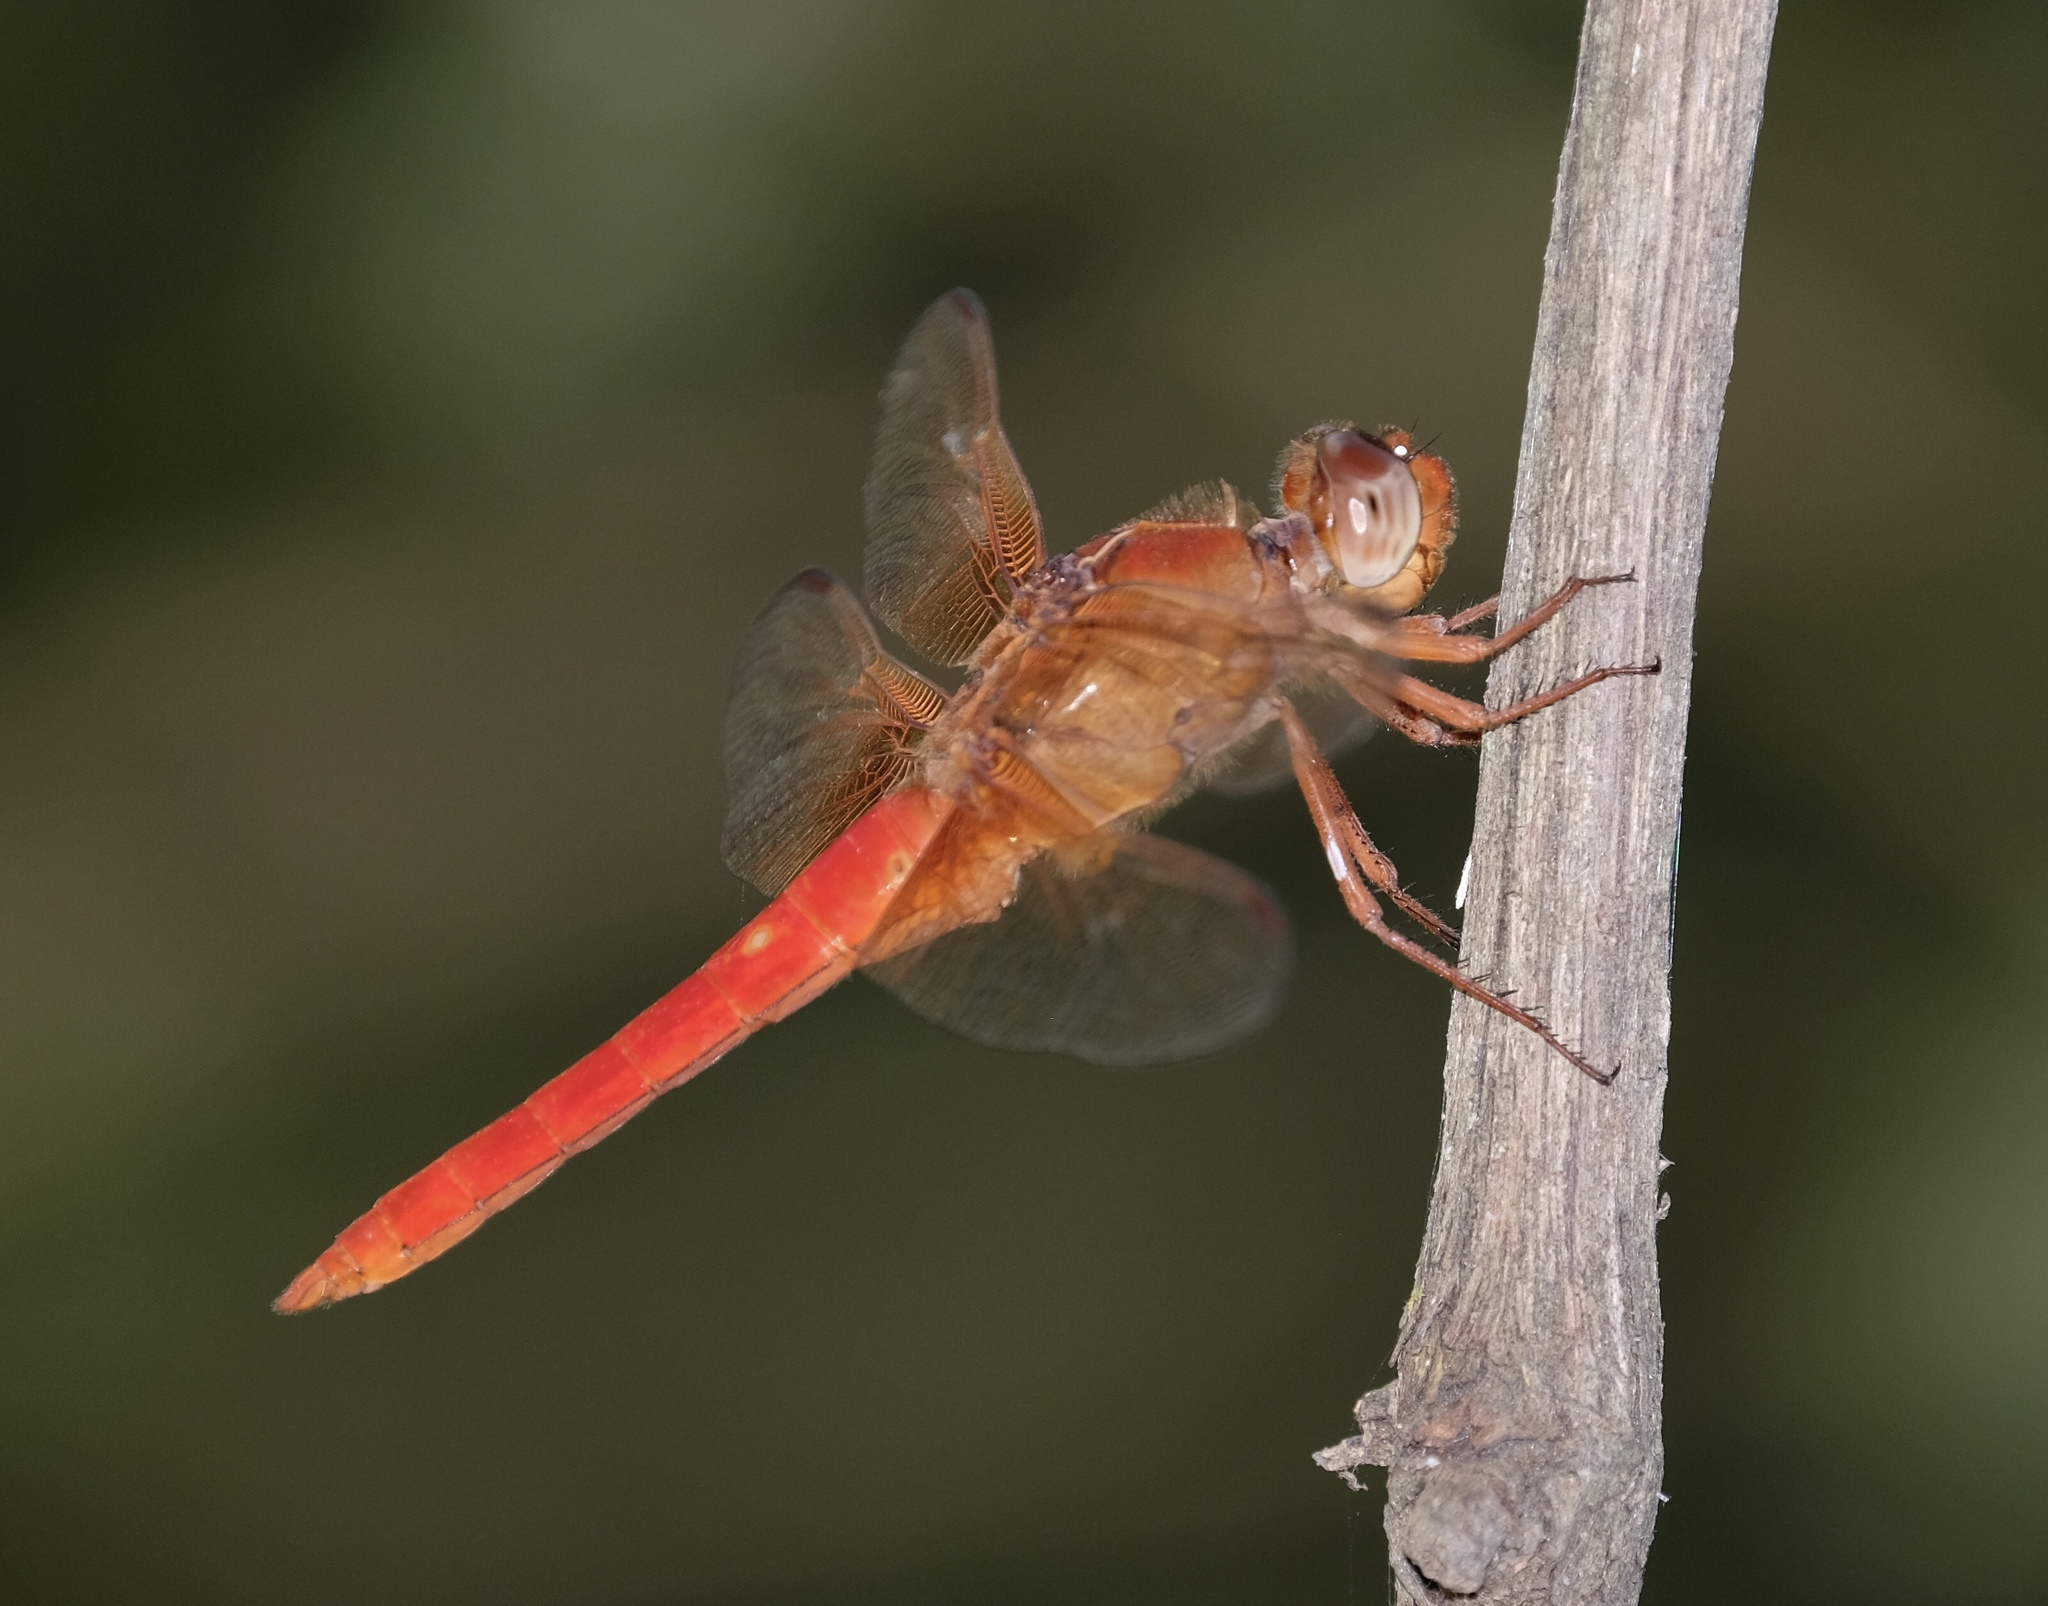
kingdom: Animalia
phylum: Arthropoda
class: Insecta
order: Odonata
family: Libellulidae
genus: Libellula
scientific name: Libellula croceipennis
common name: Neon skimmer
